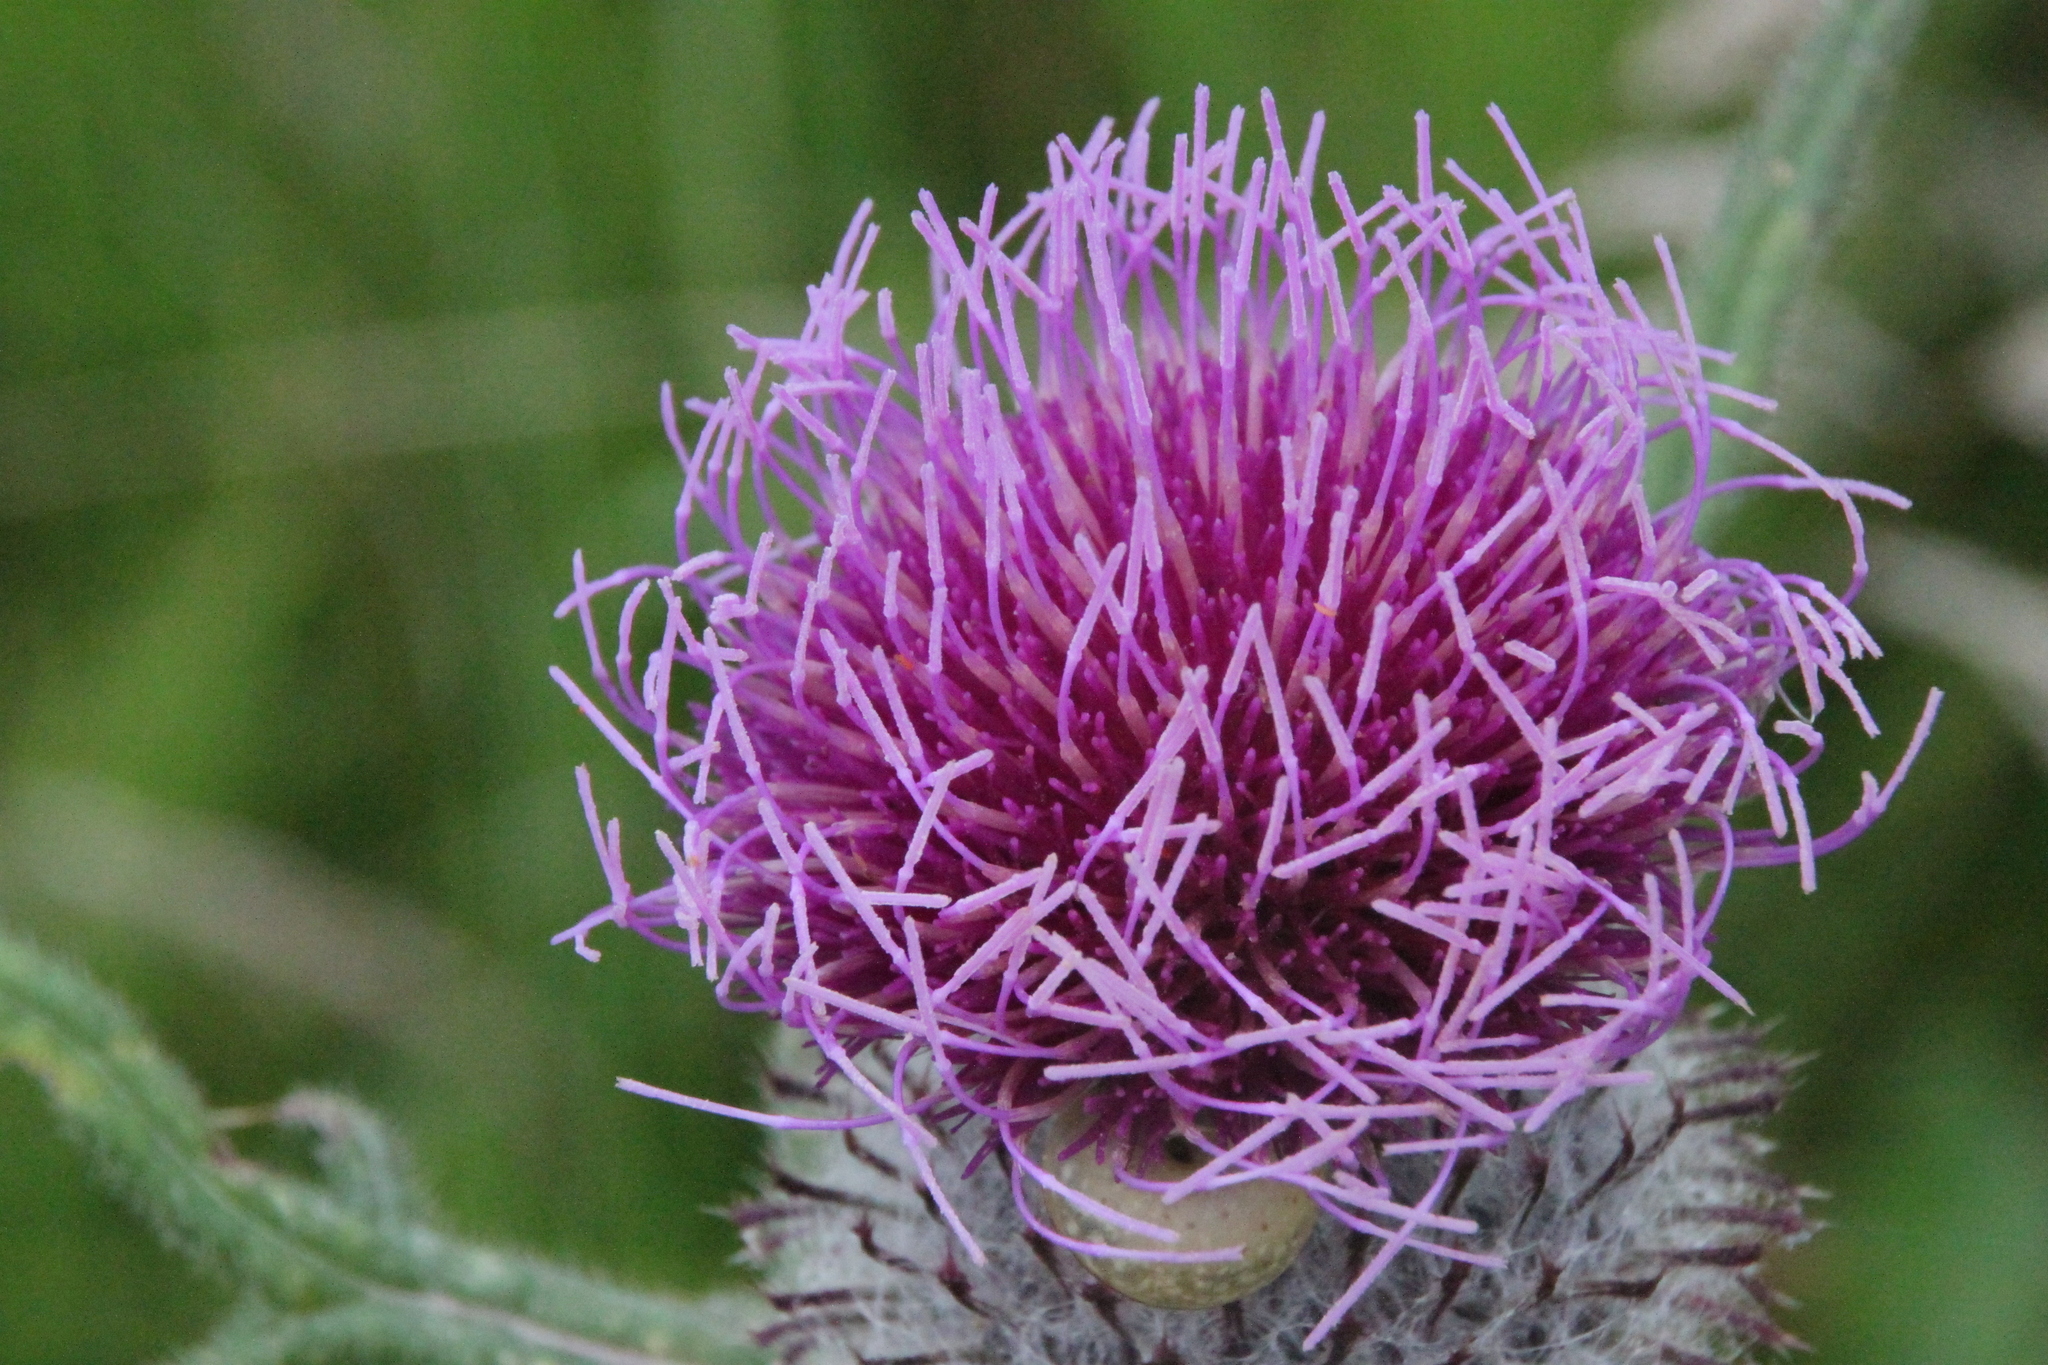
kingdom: Plantae
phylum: Tracheophyta
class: Magnoliopsida
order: Asterales
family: Asteraceae
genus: Lophiolepis
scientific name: Lophiolepis decussata
